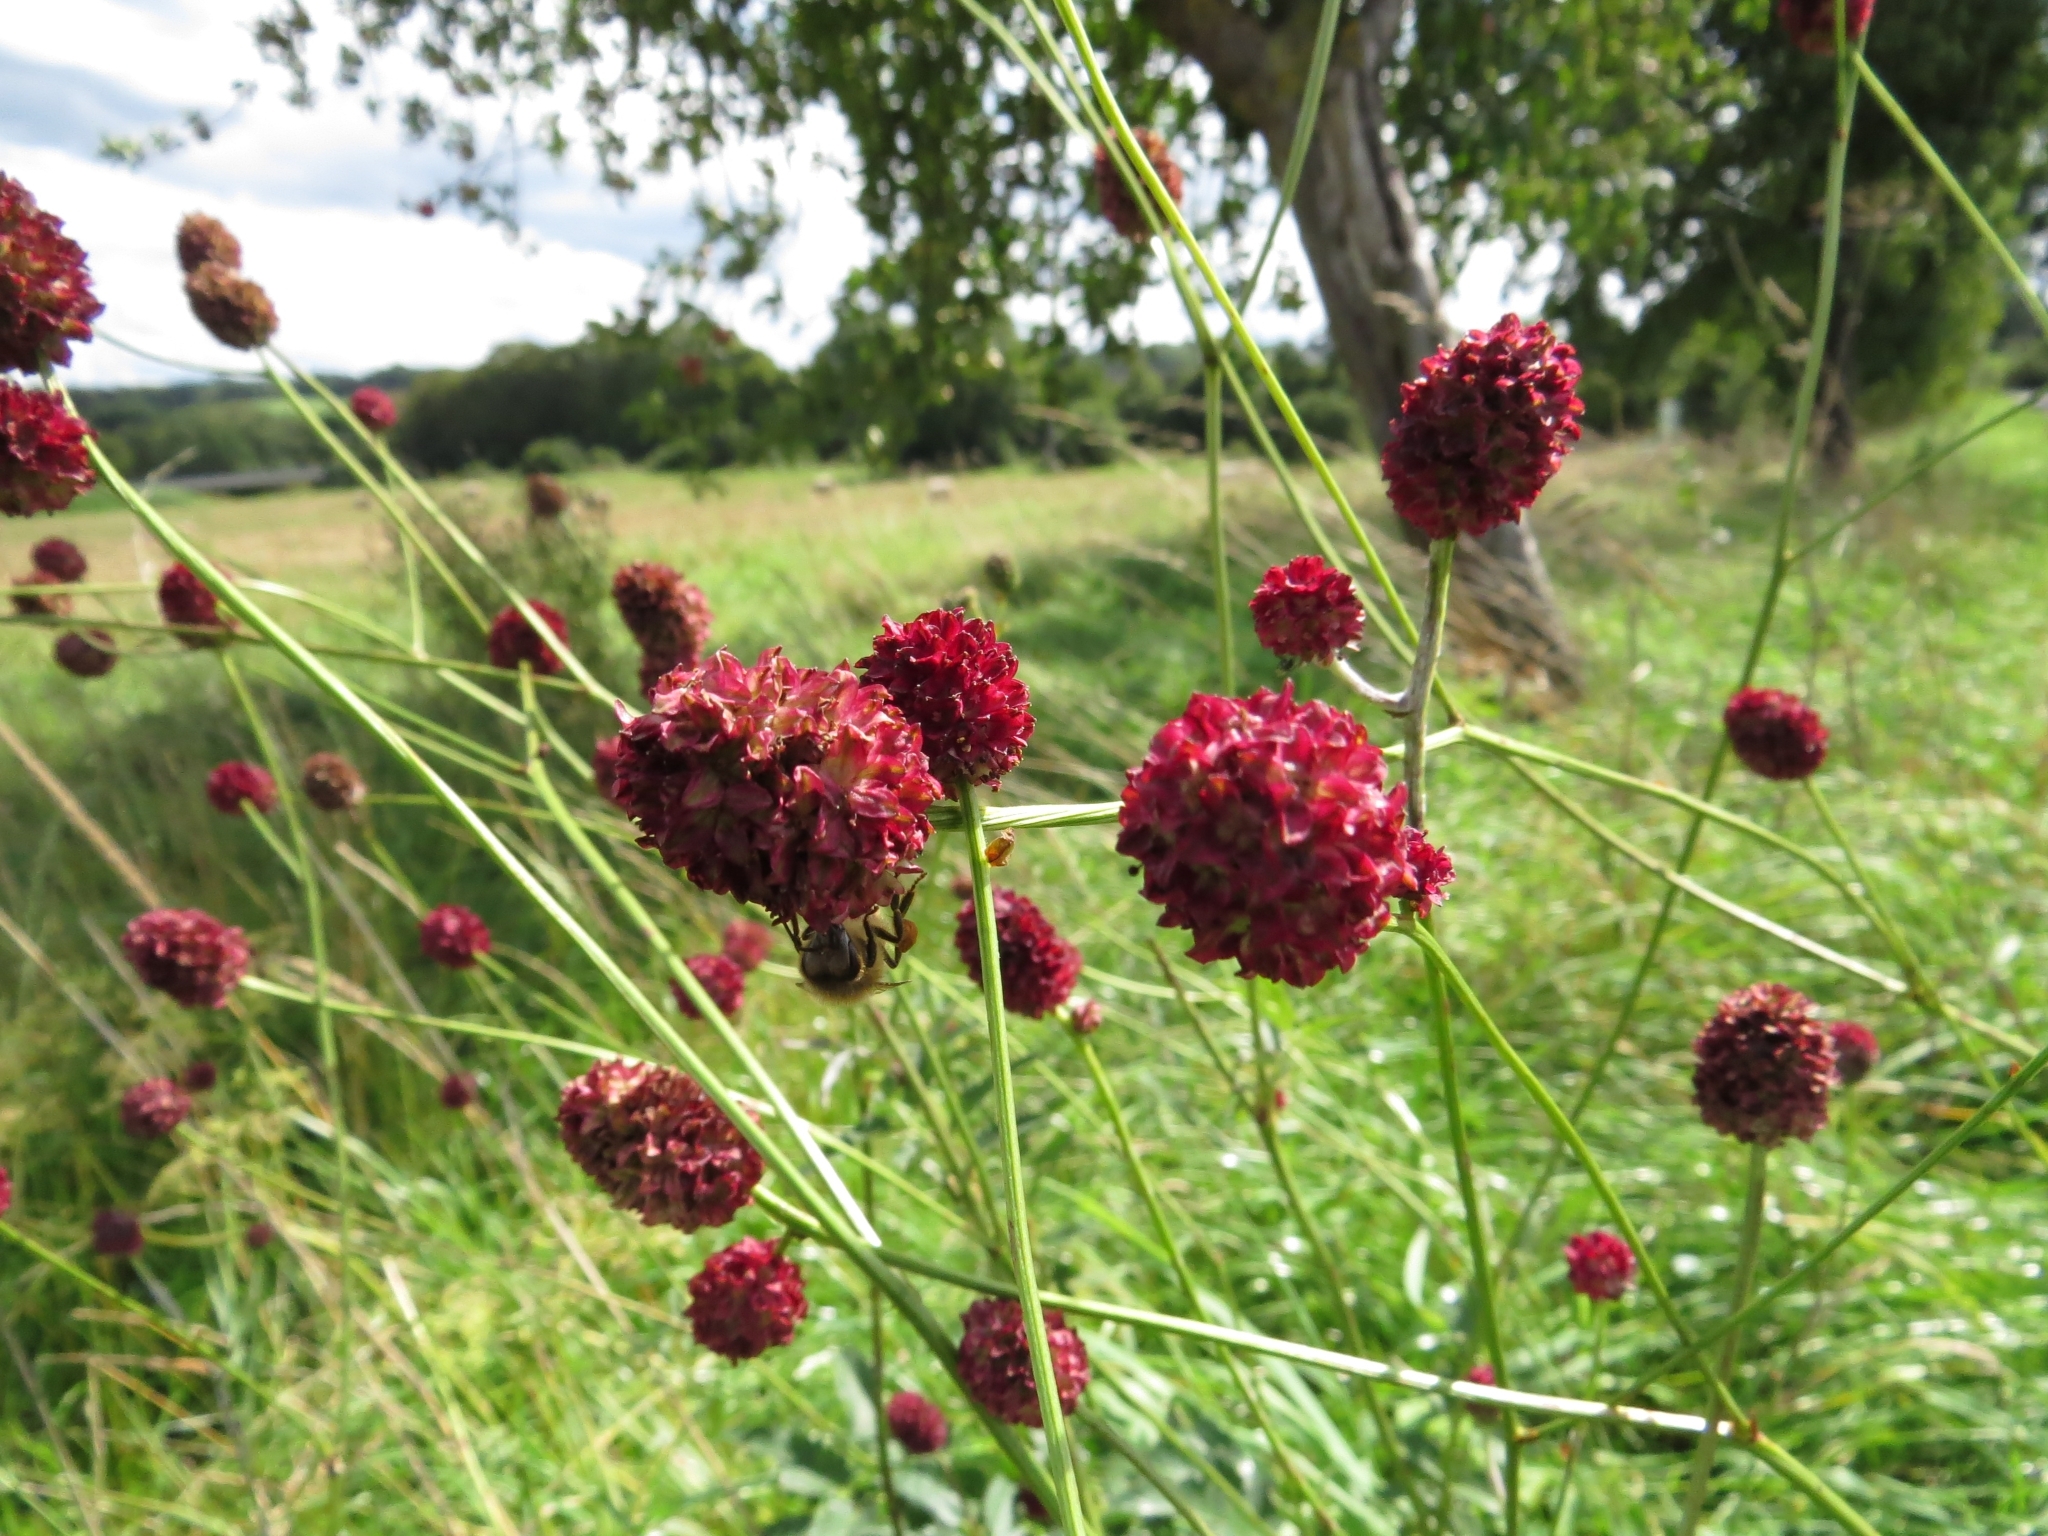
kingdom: Plantae
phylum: Tracheophyta
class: Magnoliopsida
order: Rosales
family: Rosaceae
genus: Sanguisorba
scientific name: Sanguisorba officinalis
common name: Great burnet
